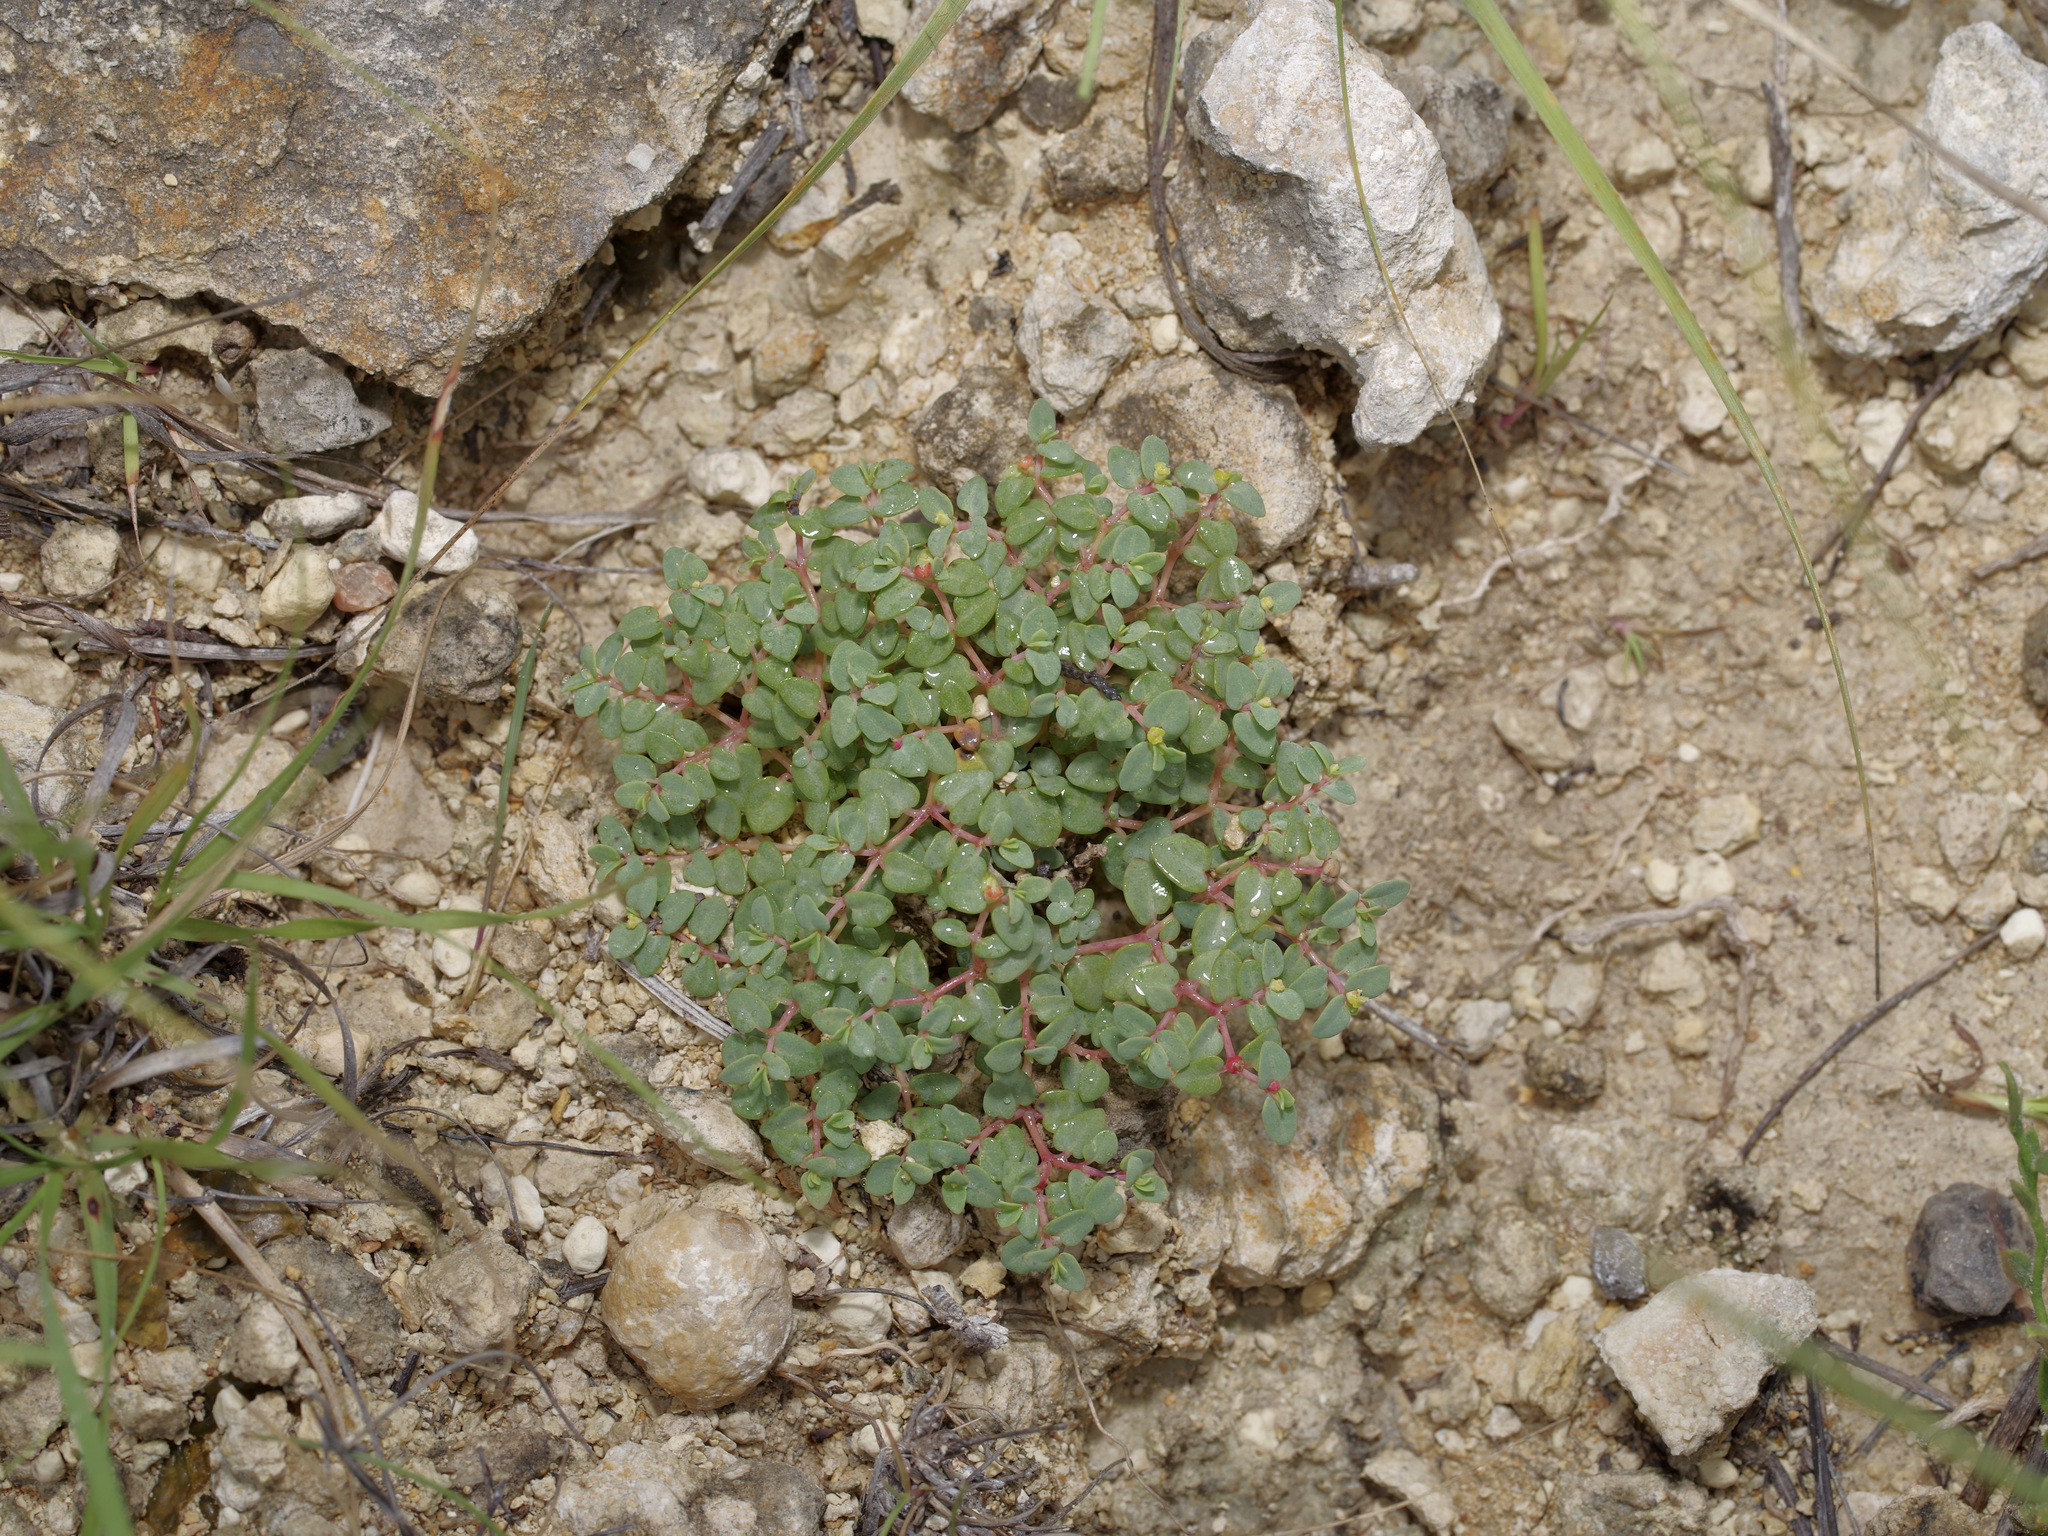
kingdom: Plantae
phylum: Tracheophyta
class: Magnoliopsida
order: Malpighiales
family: Euphorbiaceae
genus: Euphorbia
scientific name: Euphorbia fendleri
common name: Fendler's euphorbia
